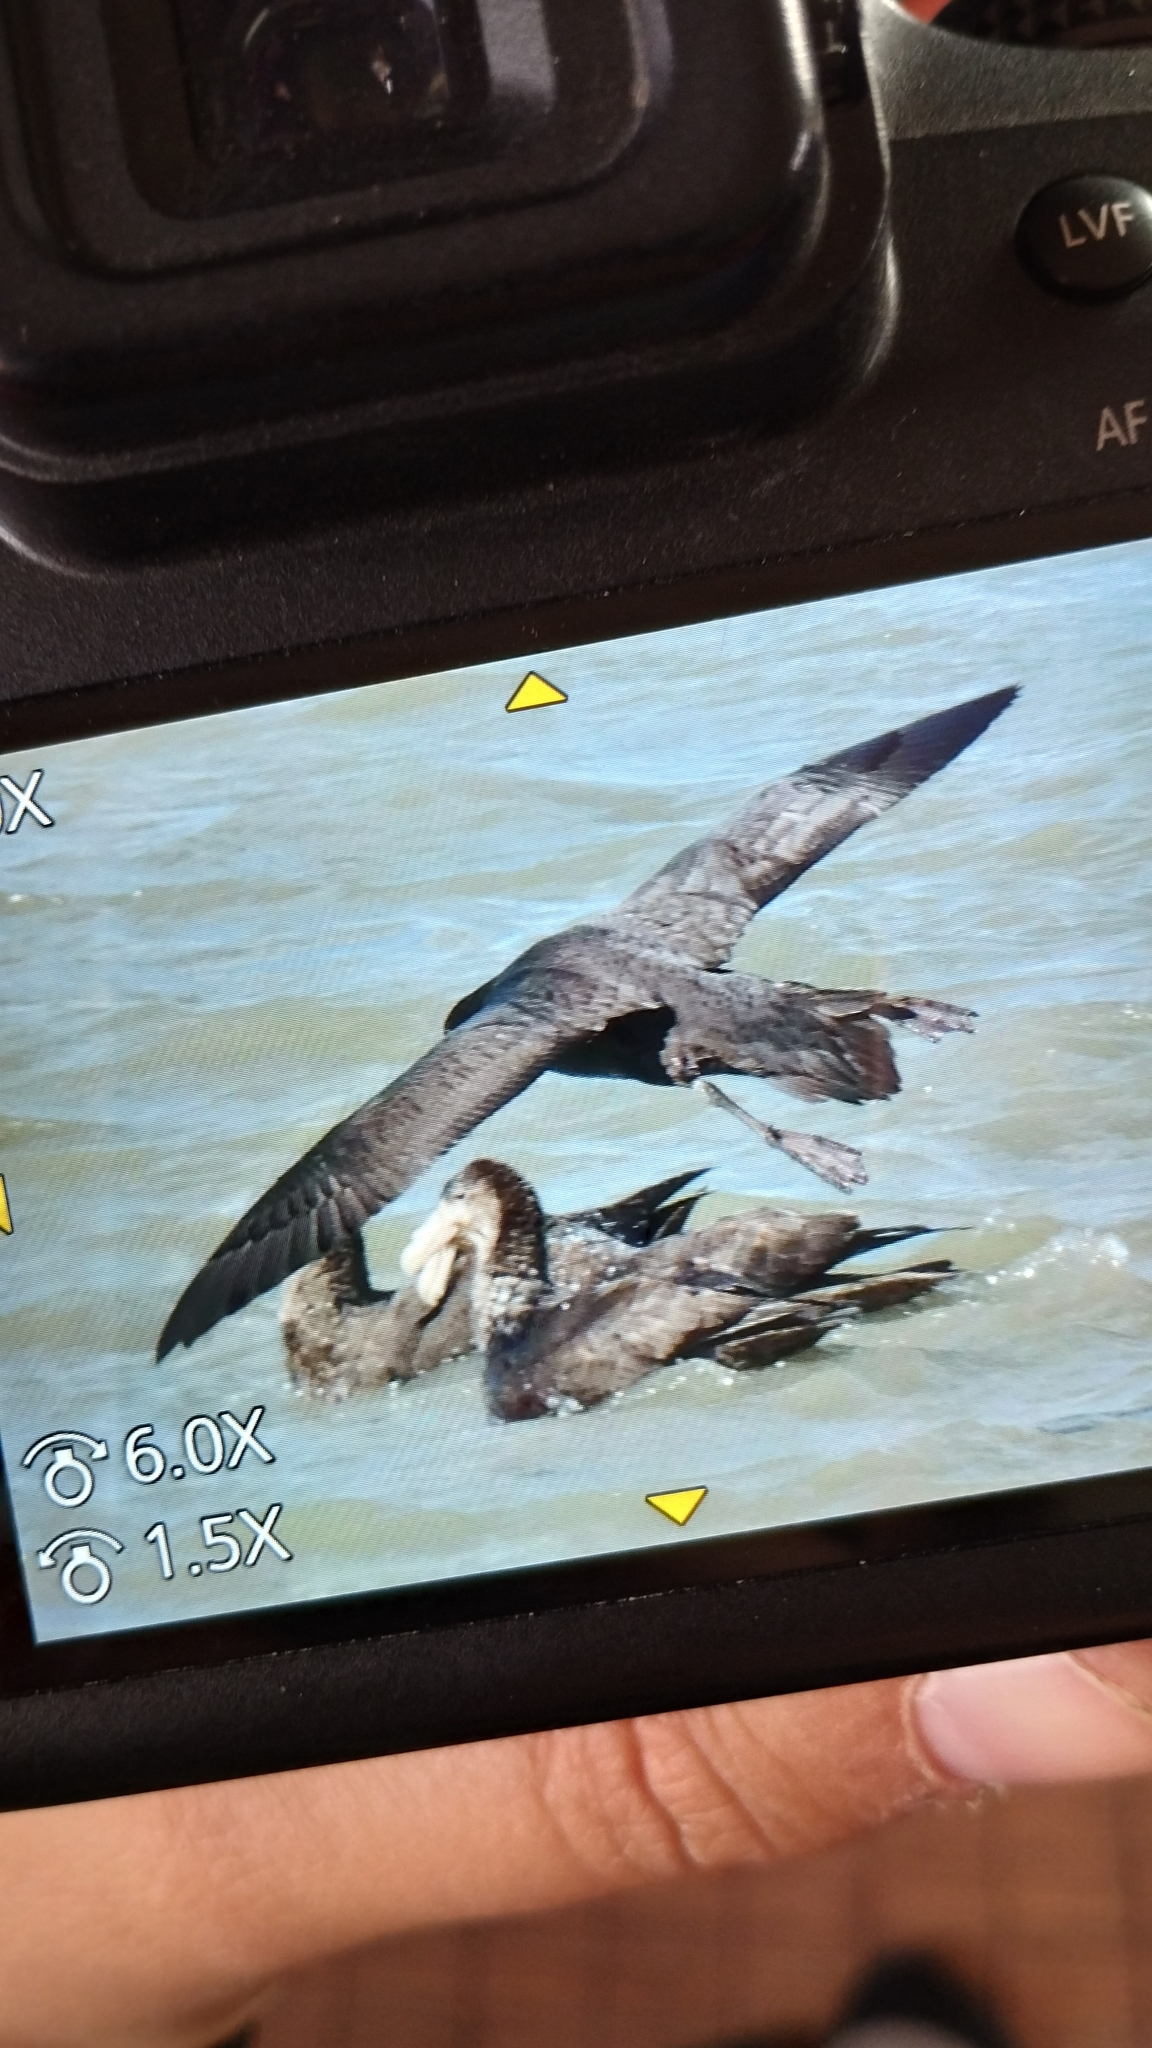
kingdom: Animalia
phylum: Chordata
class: Aves
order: Procellariiformes
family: Procellariidae
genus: Macronectes
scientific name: Macronectes giganteus
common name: Southern giant petrel
